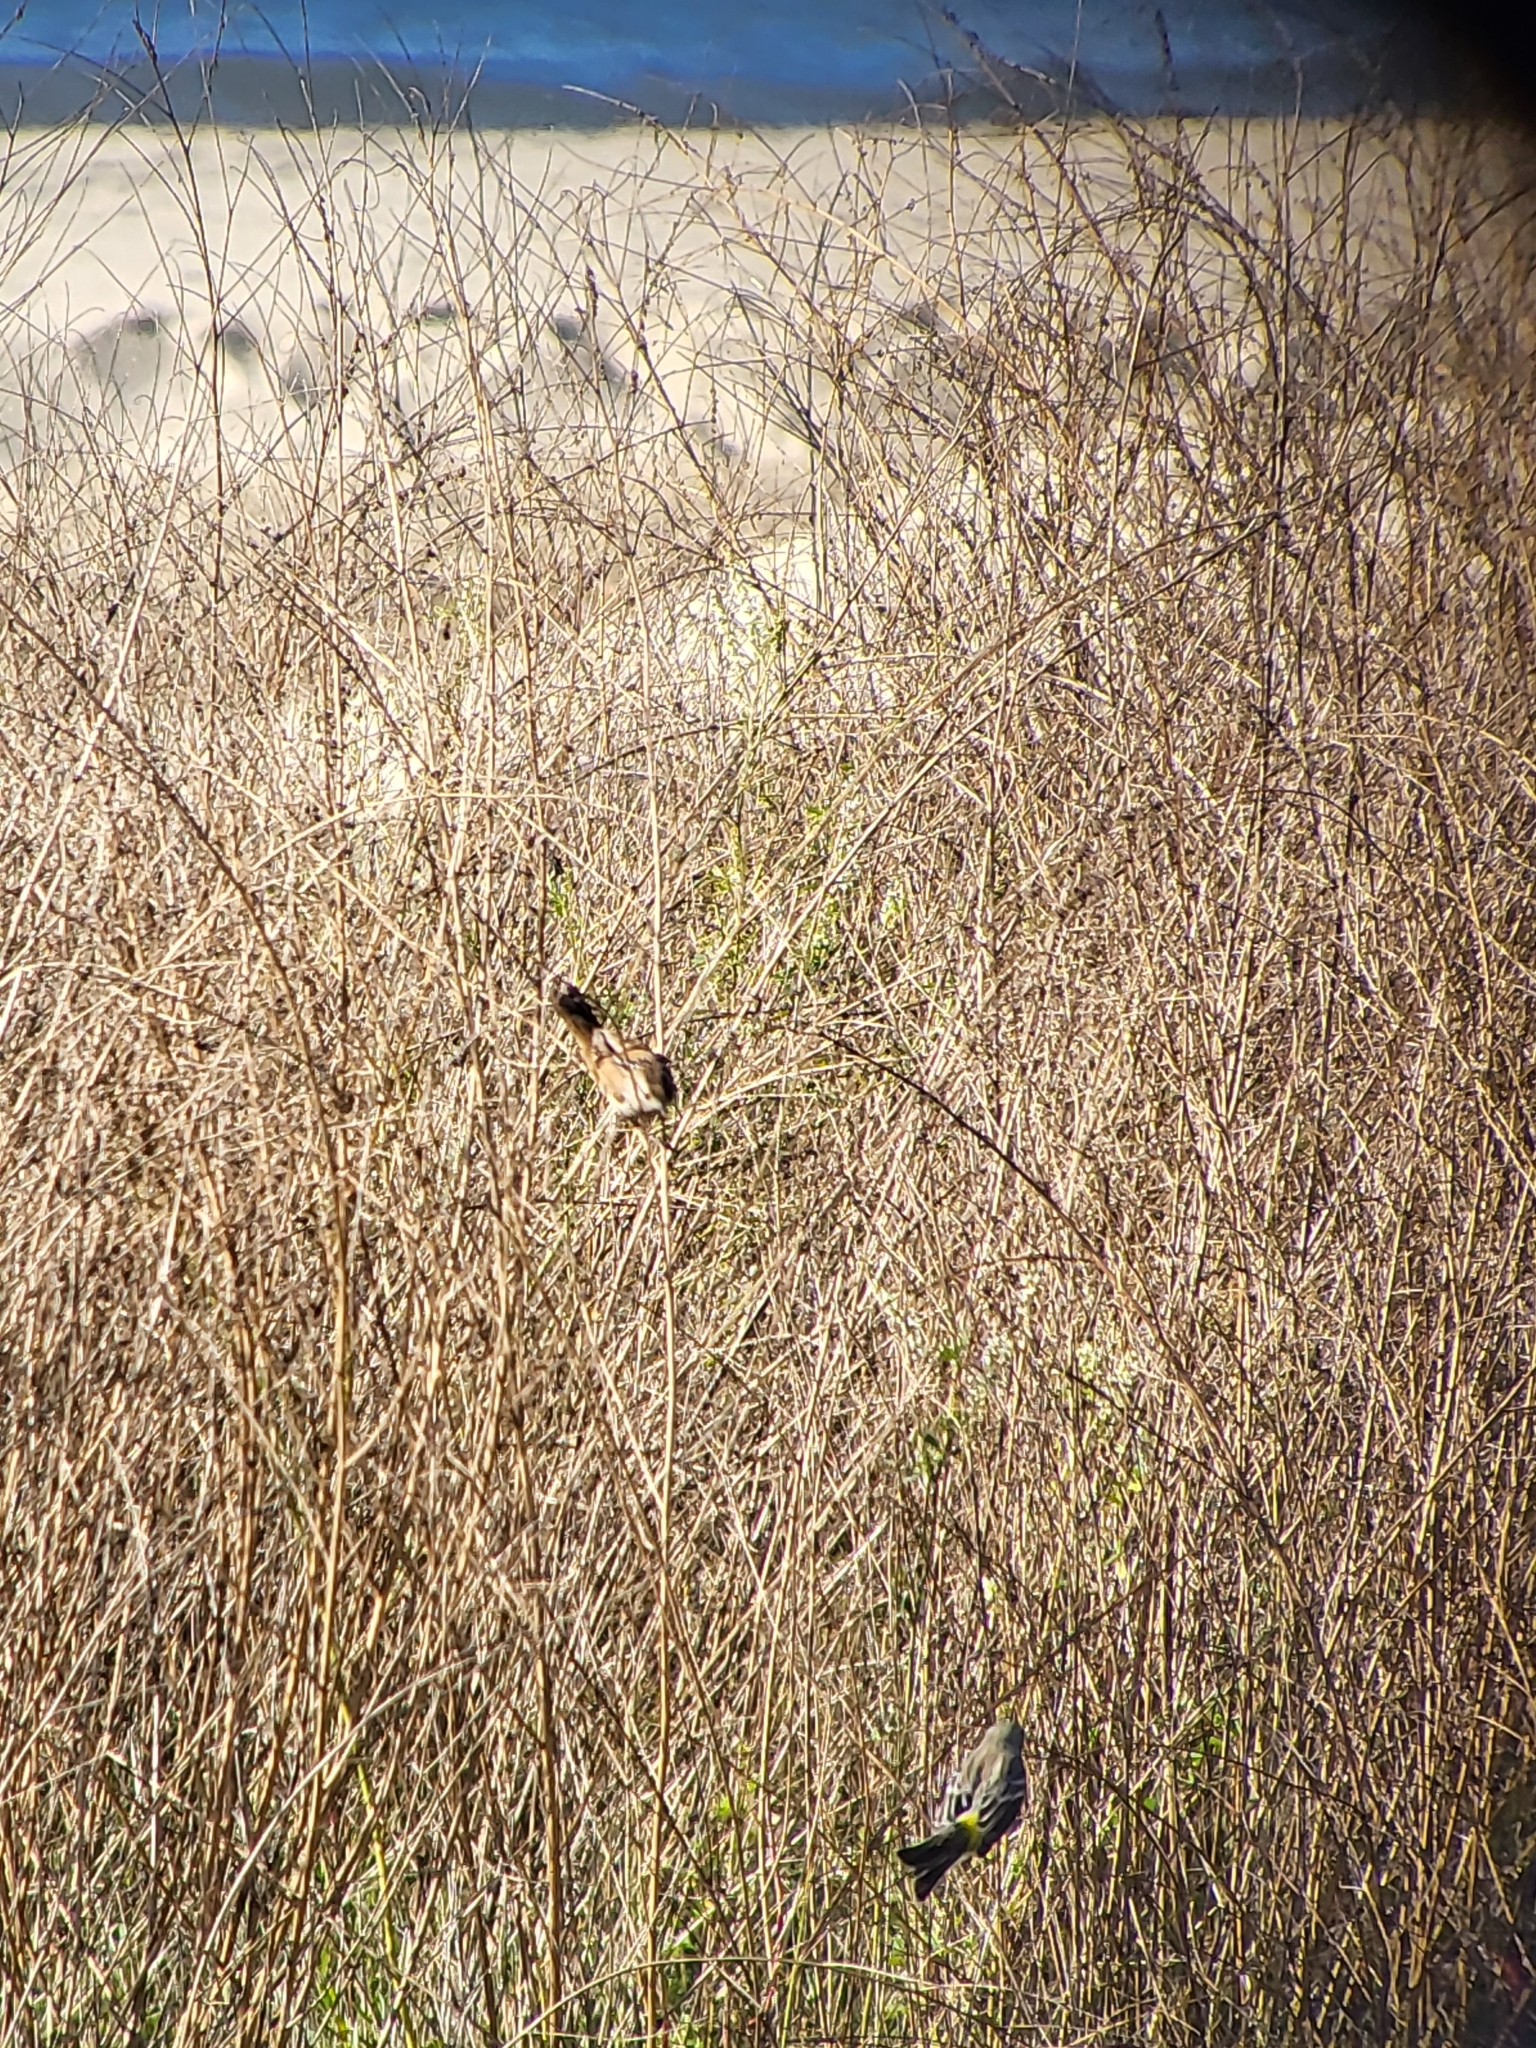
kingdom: Animalia
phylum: Chordata
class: Aves
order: Passeriformes
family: Parulidae
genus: Setophaga
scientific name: Setophaga coronata
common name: Myrtle warbler
